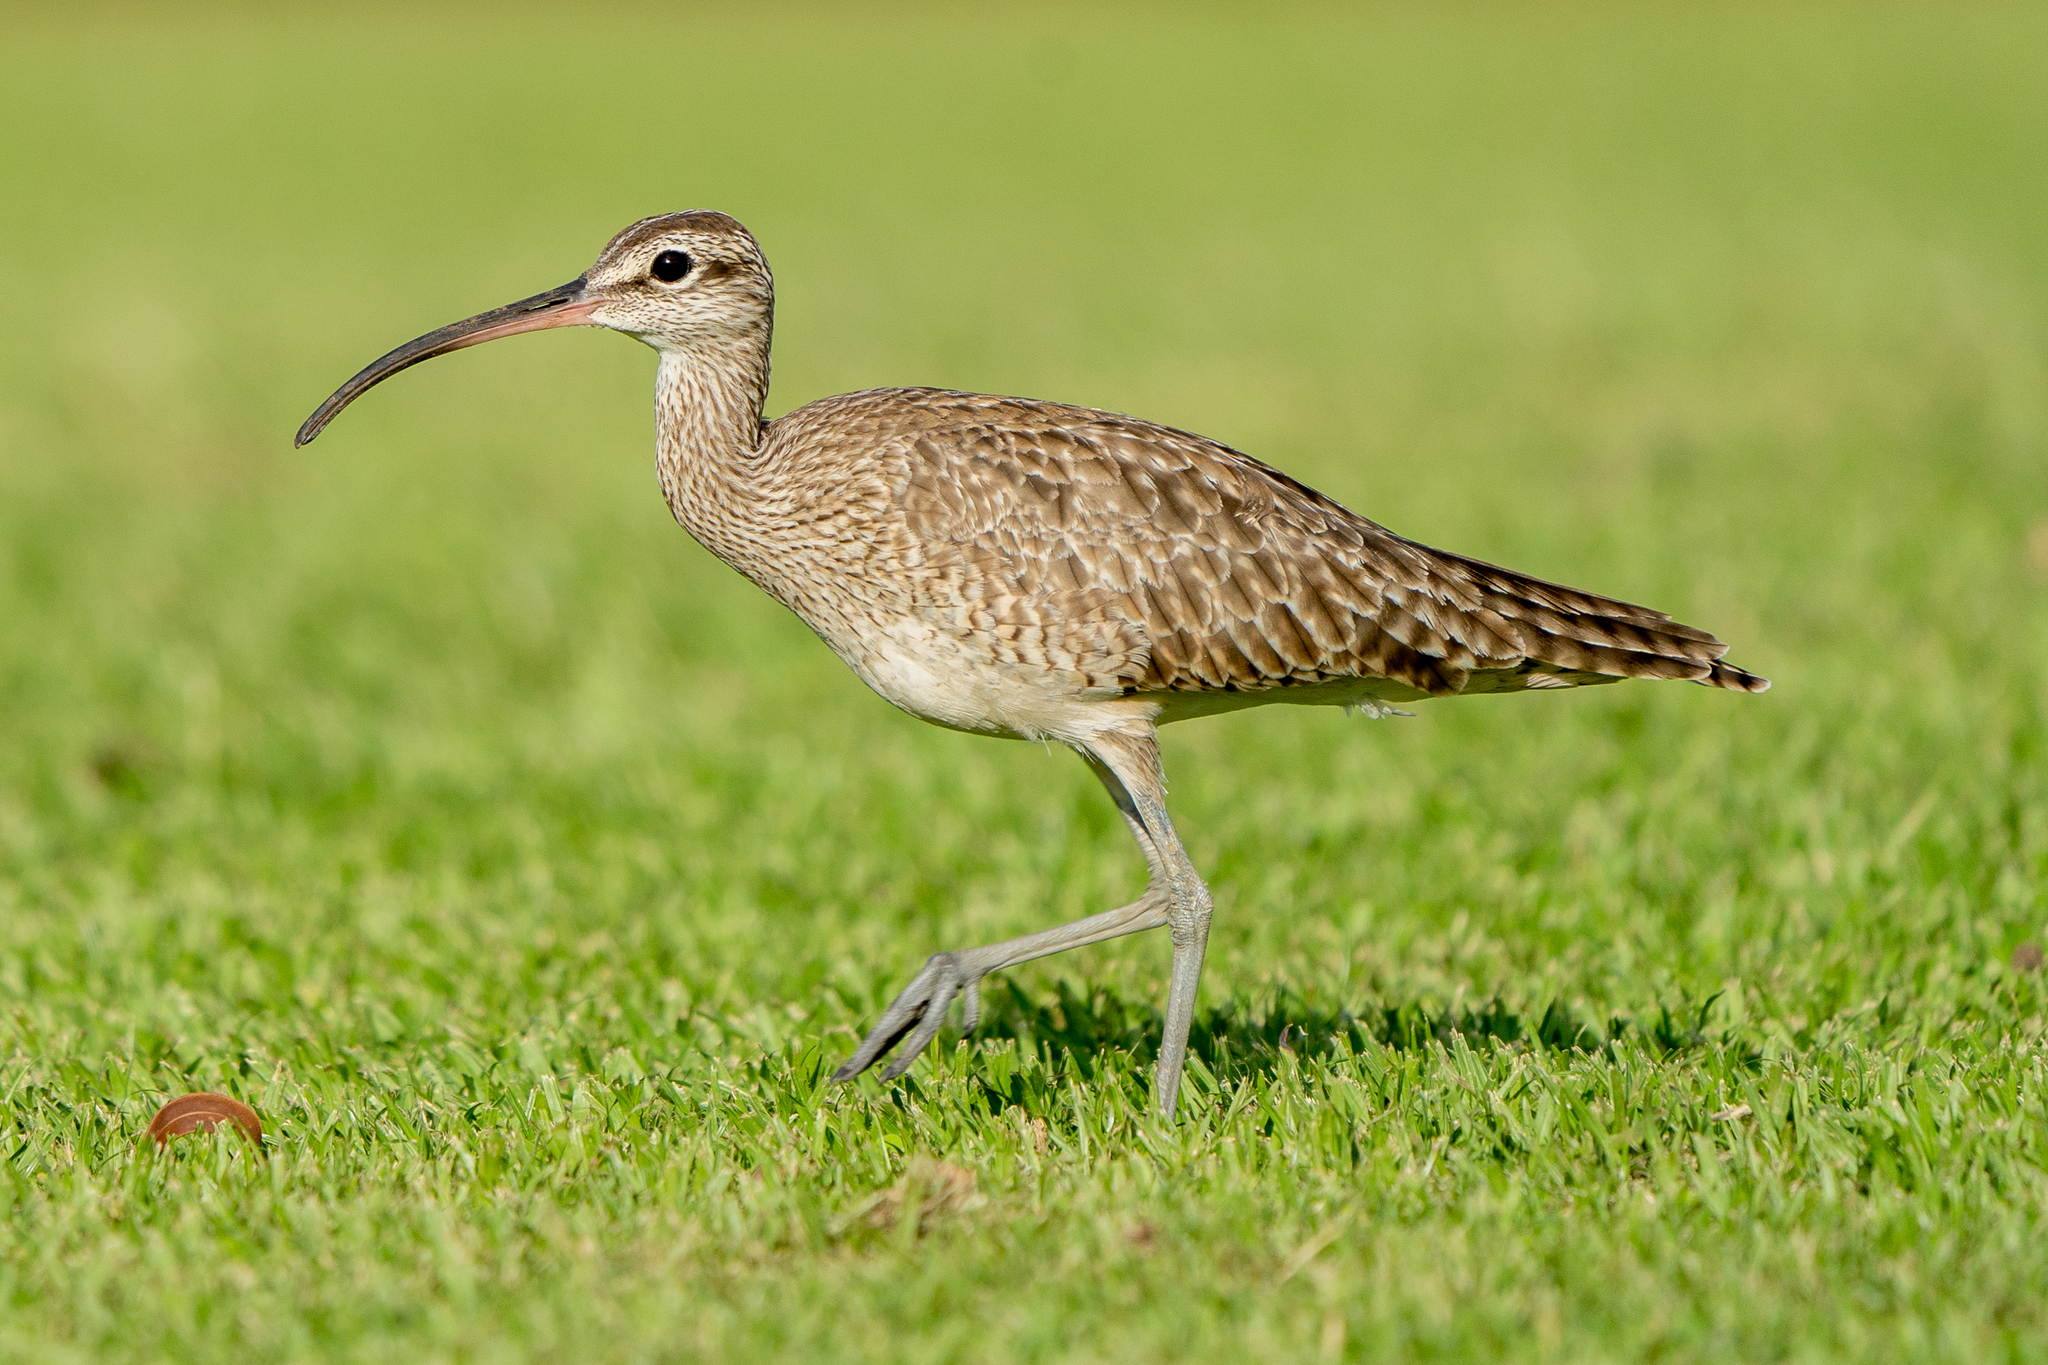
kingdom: Animalia
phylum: Chordata
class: Aves
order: Charadriiformes
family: Scolopacidae
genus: Numenius
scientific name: Numenius phaeopus
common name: Whimbrel
